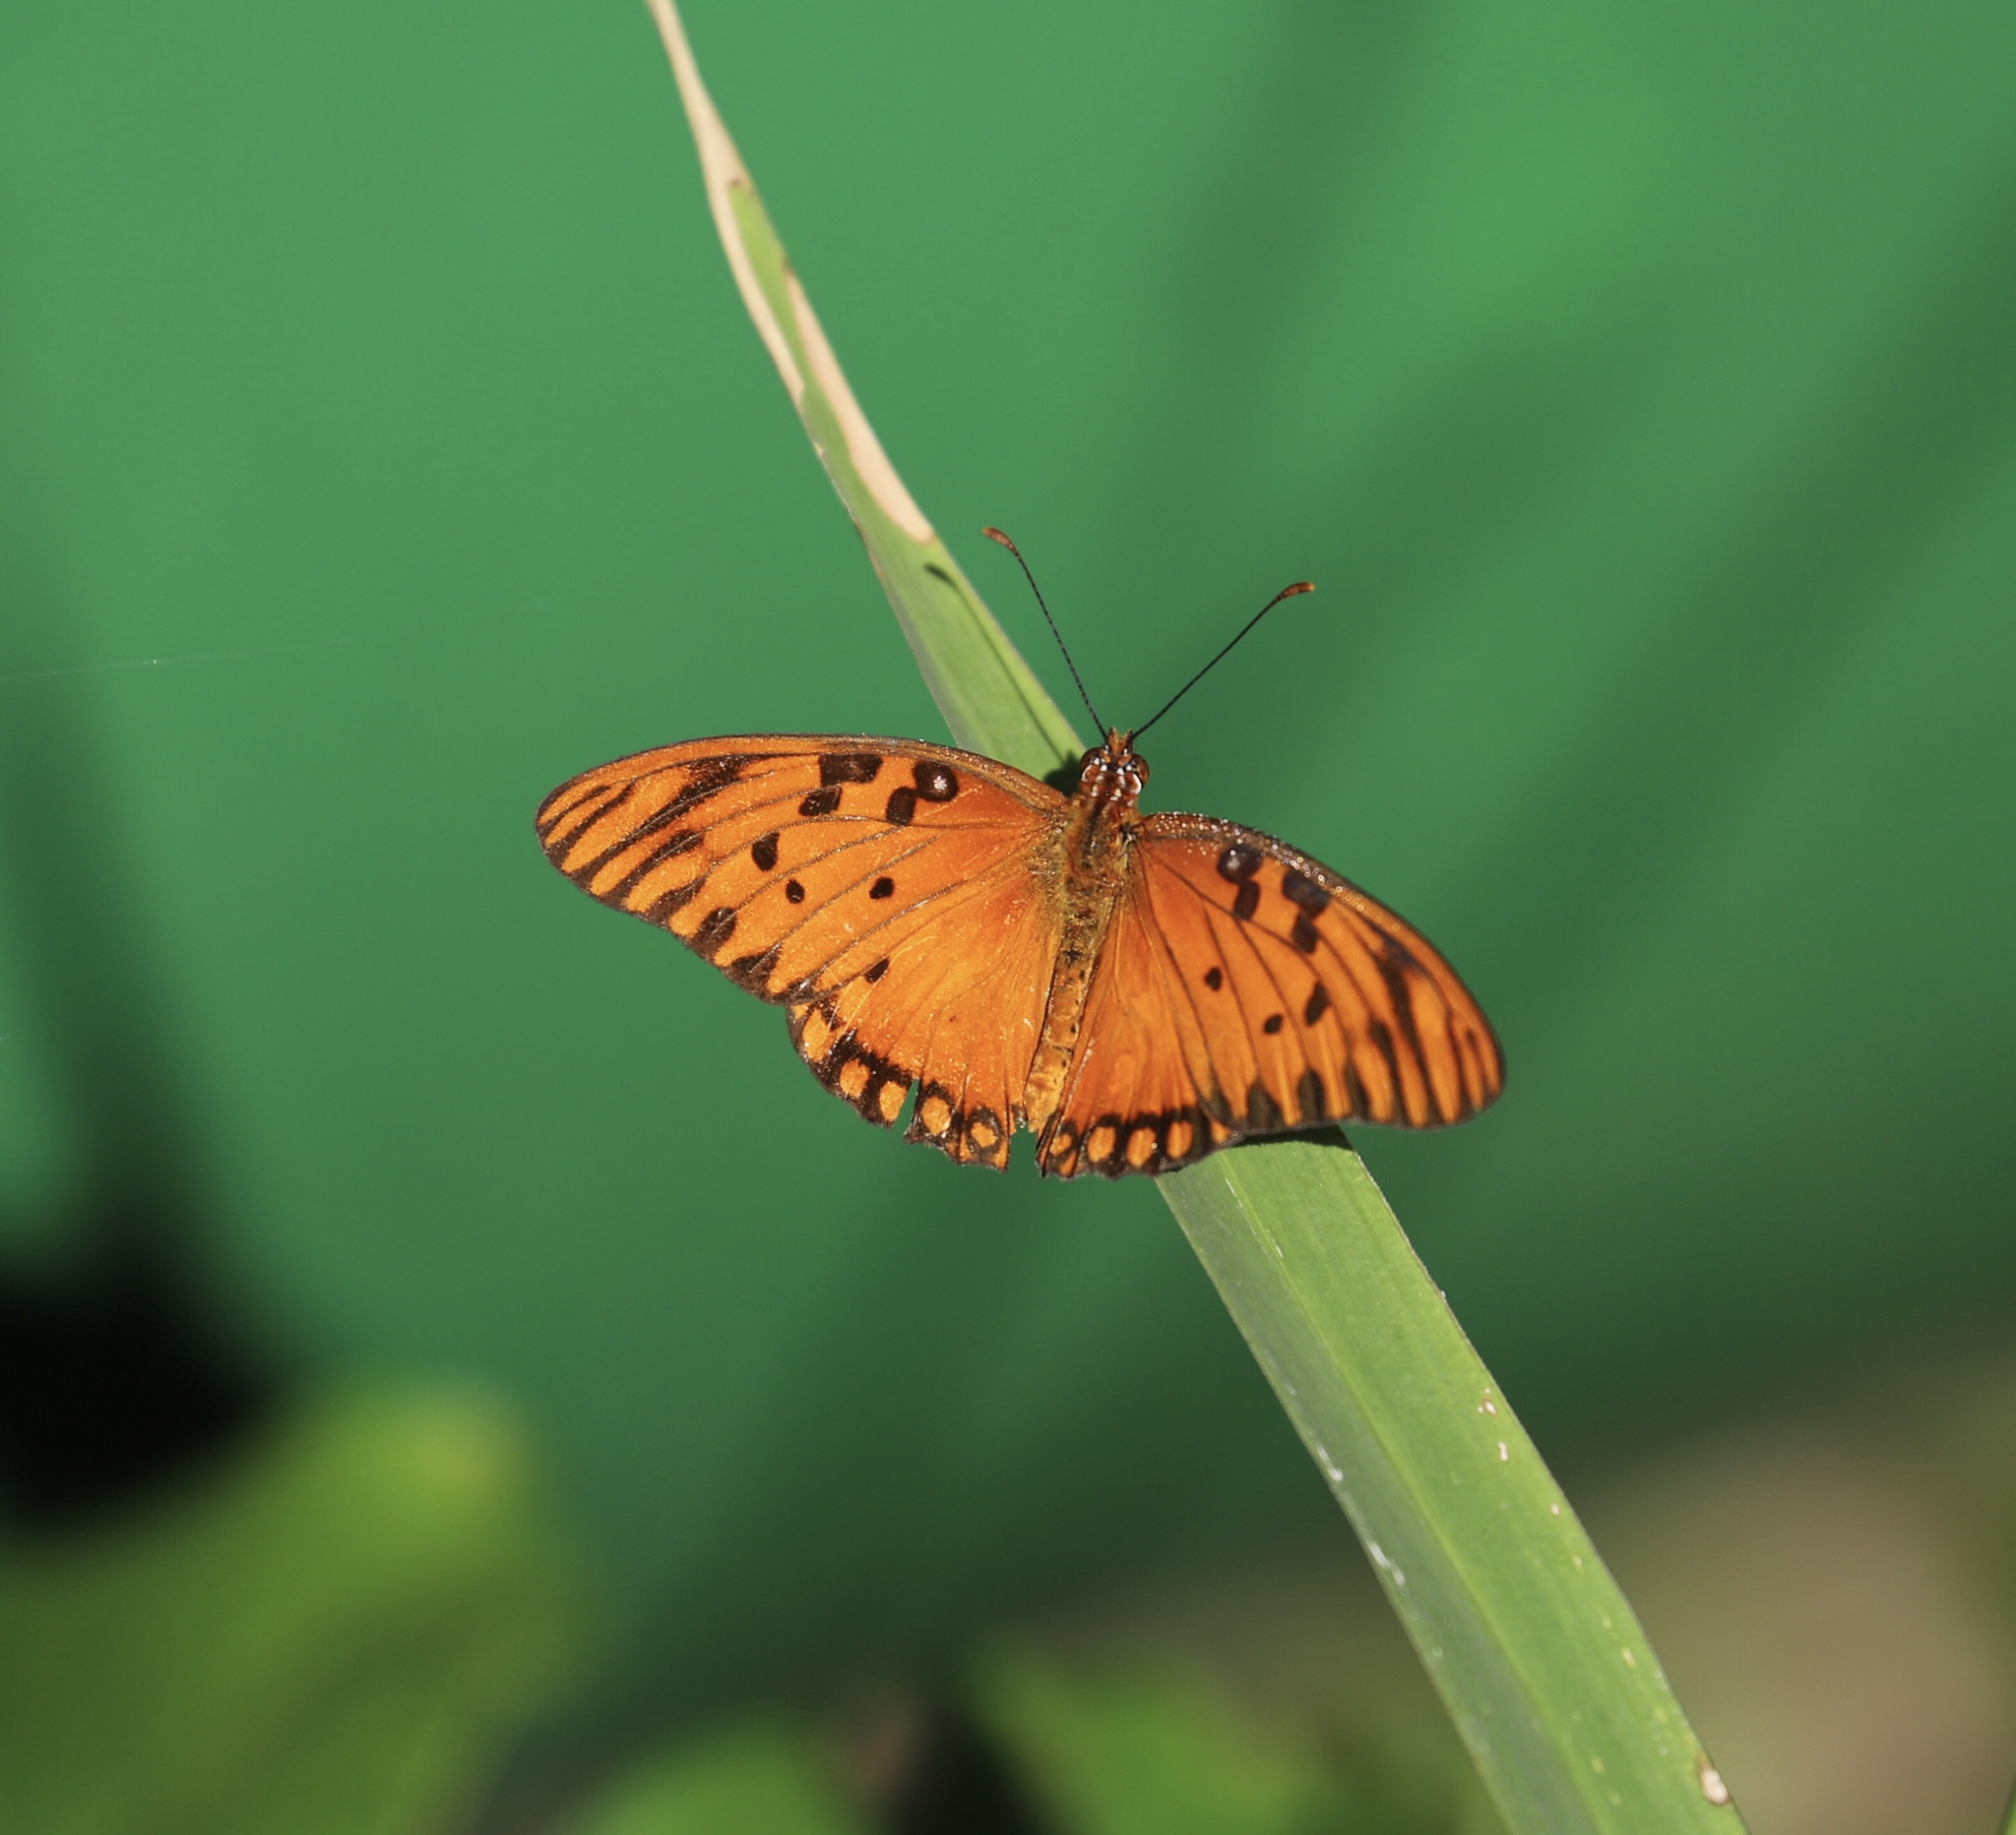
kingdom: Animalia
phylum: Arthropoda
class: Insecta
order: Lepidoptera
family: Nymphalidae
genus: Dione
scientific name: Dione vanillae
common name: Gulf fritillary
